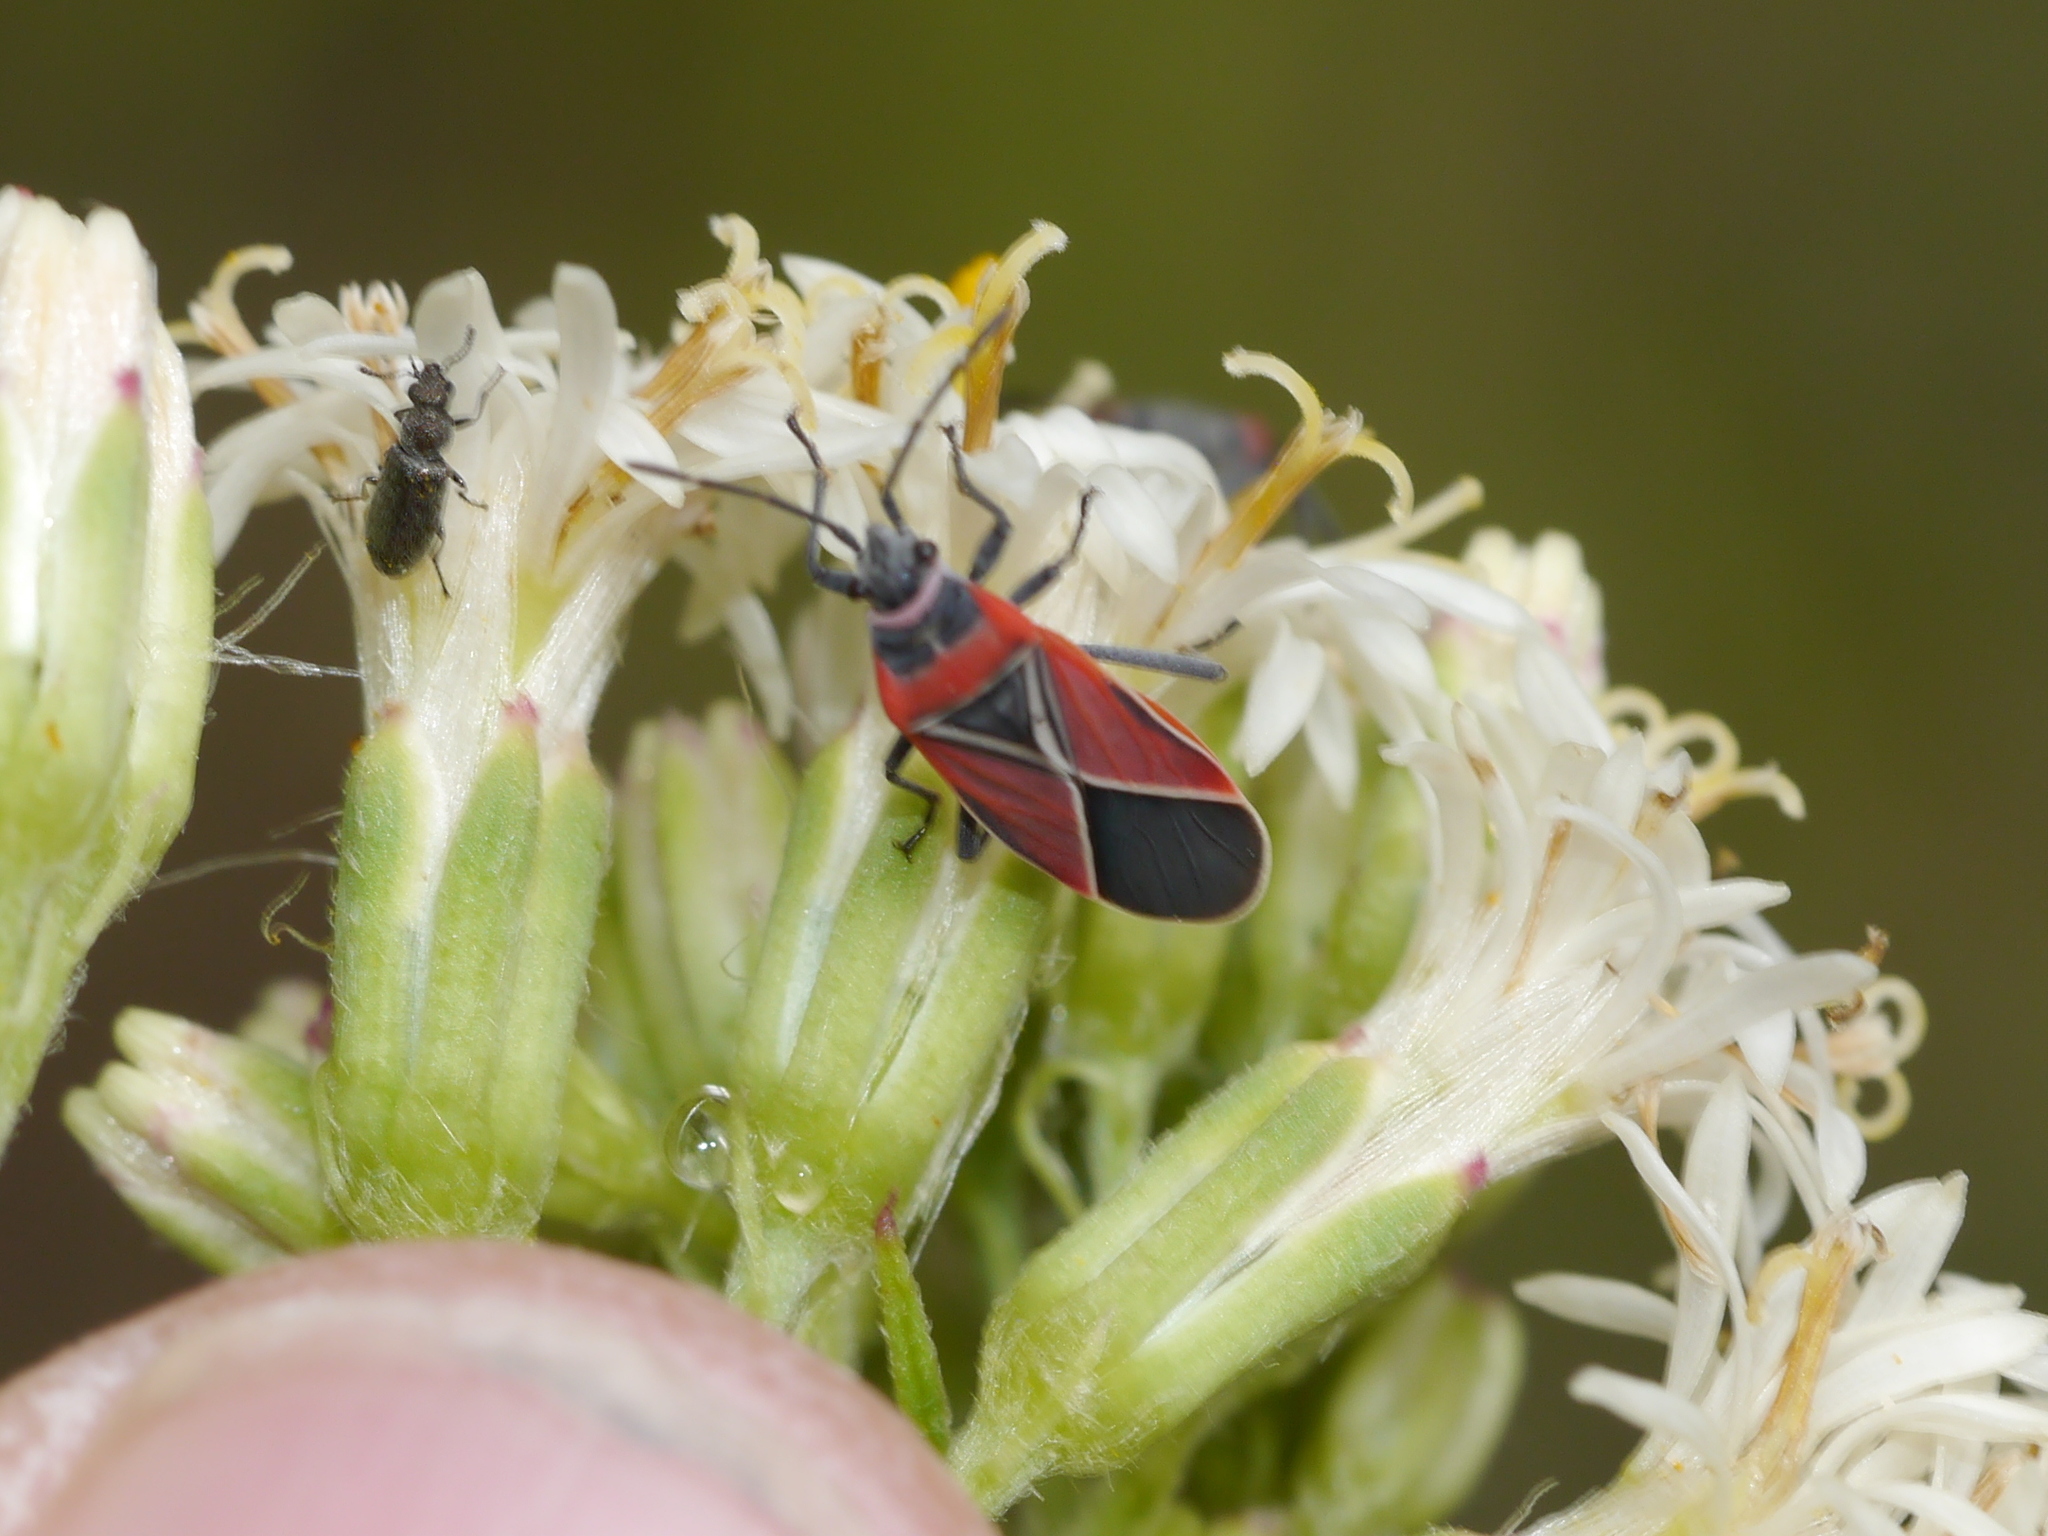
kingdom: Animalia
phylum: Arthropoda
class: Insecta
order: Hemiptera
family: Lygaeidae
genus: Neacoryphus
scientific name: Neacoryphus bicrucis
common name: Lygaeid bug
